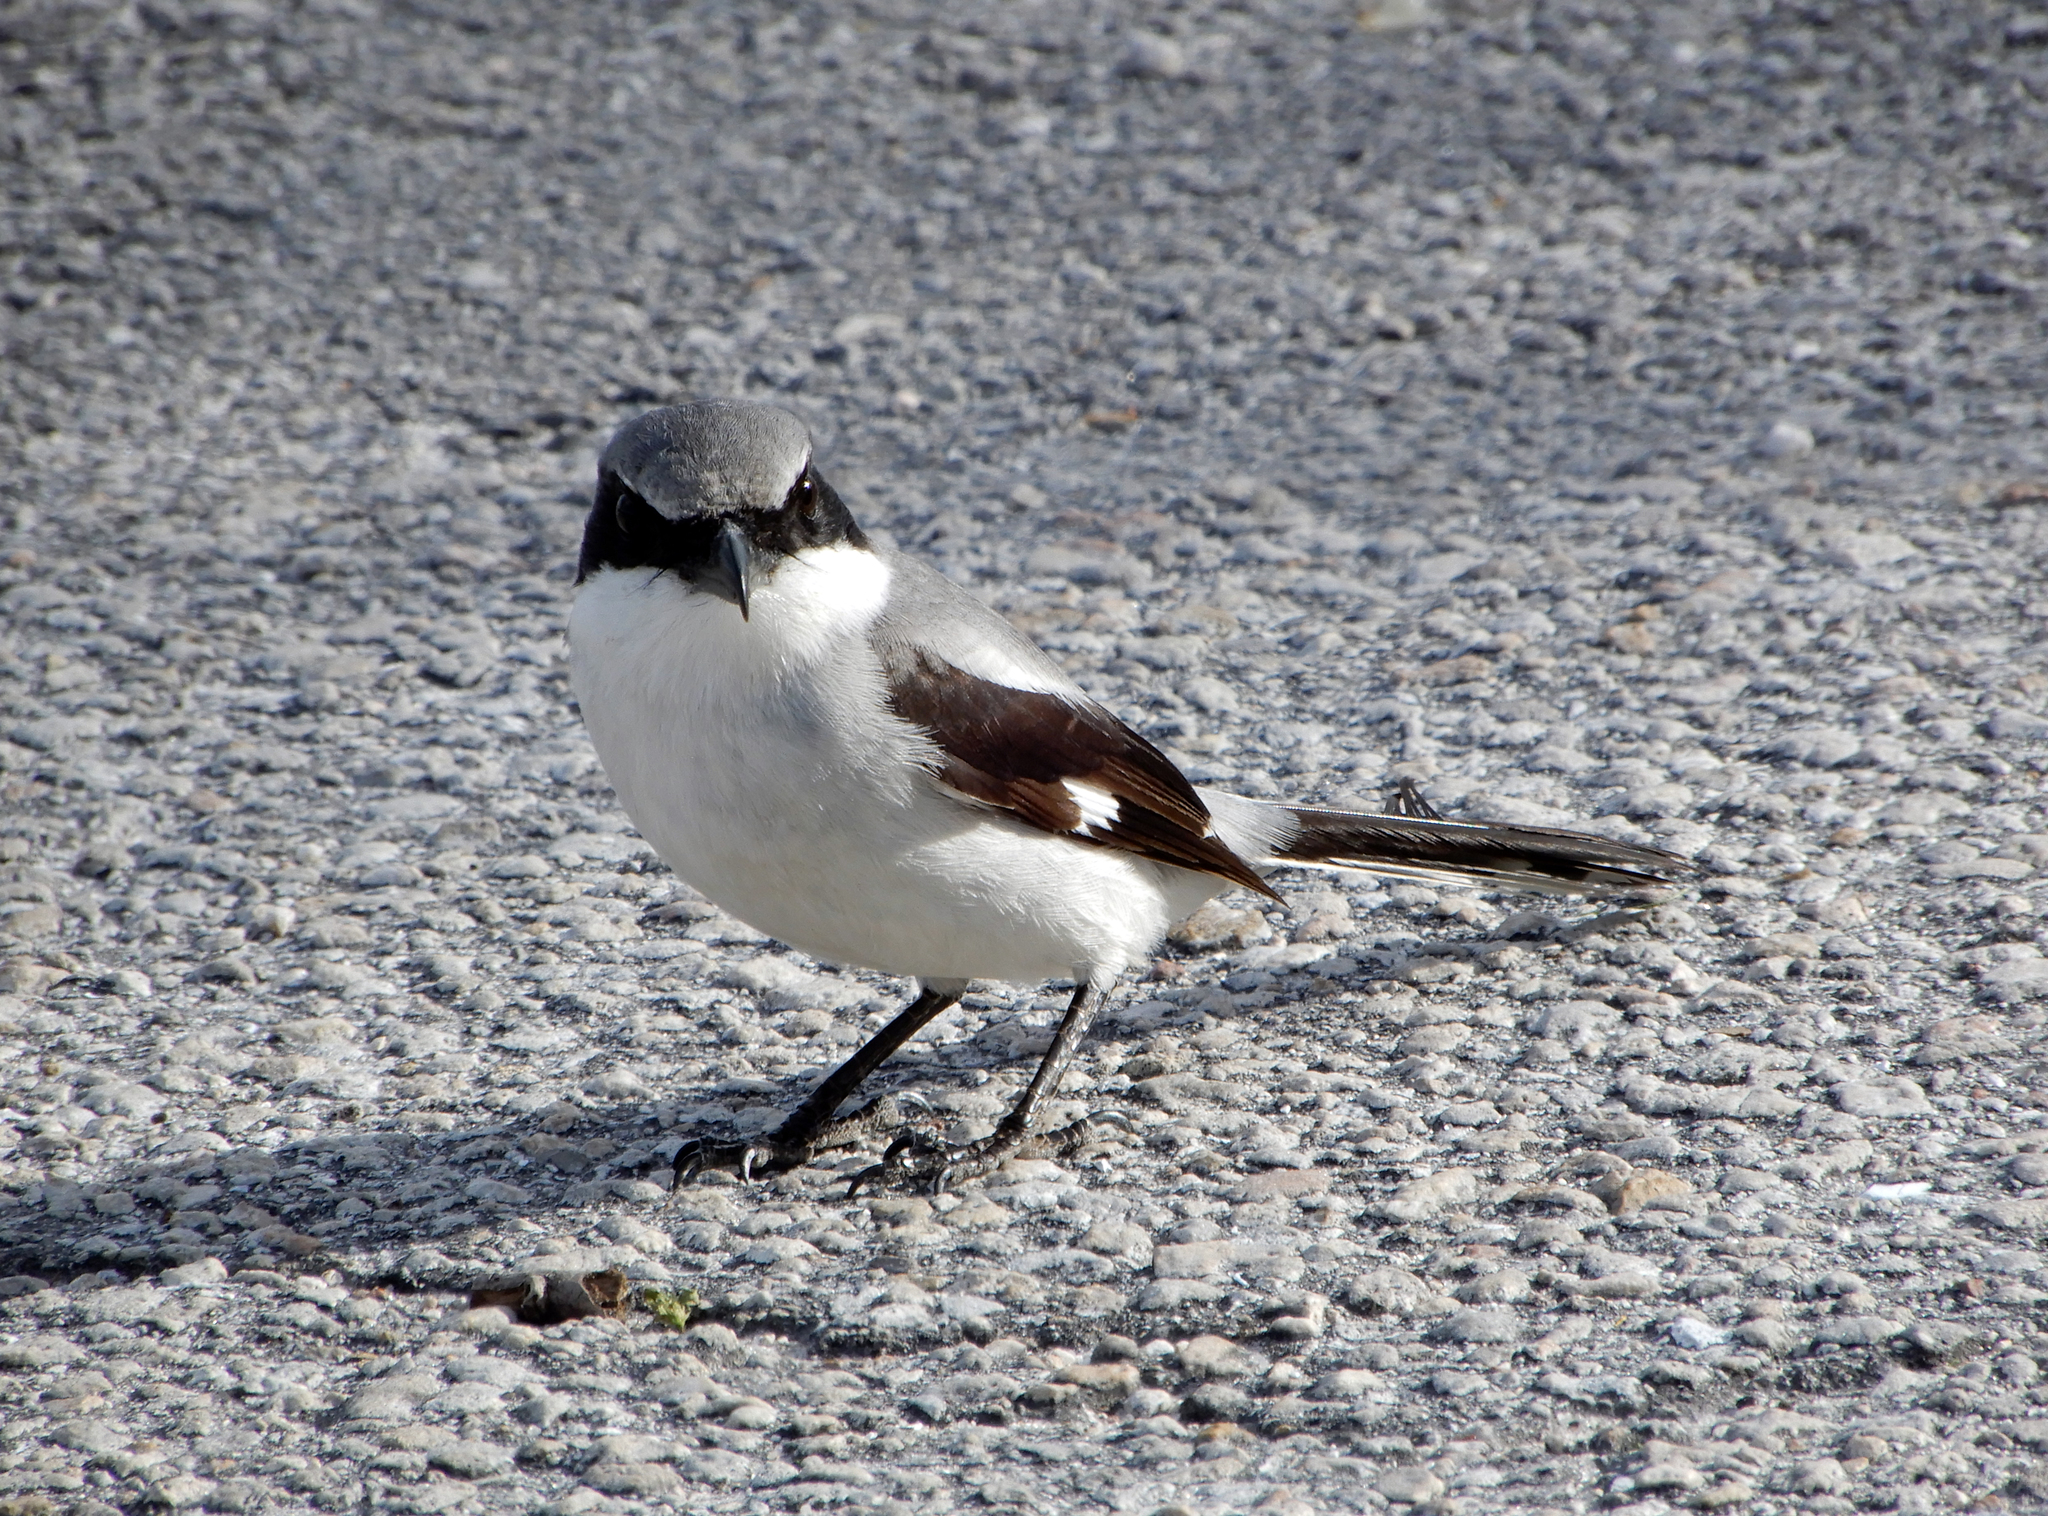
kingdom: Animalia
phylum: Chordata
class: Aves
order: Passeriformes
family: Laniidae
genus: Lanius
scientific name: Lanius ludovicianus
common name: Loggerhead shrike
